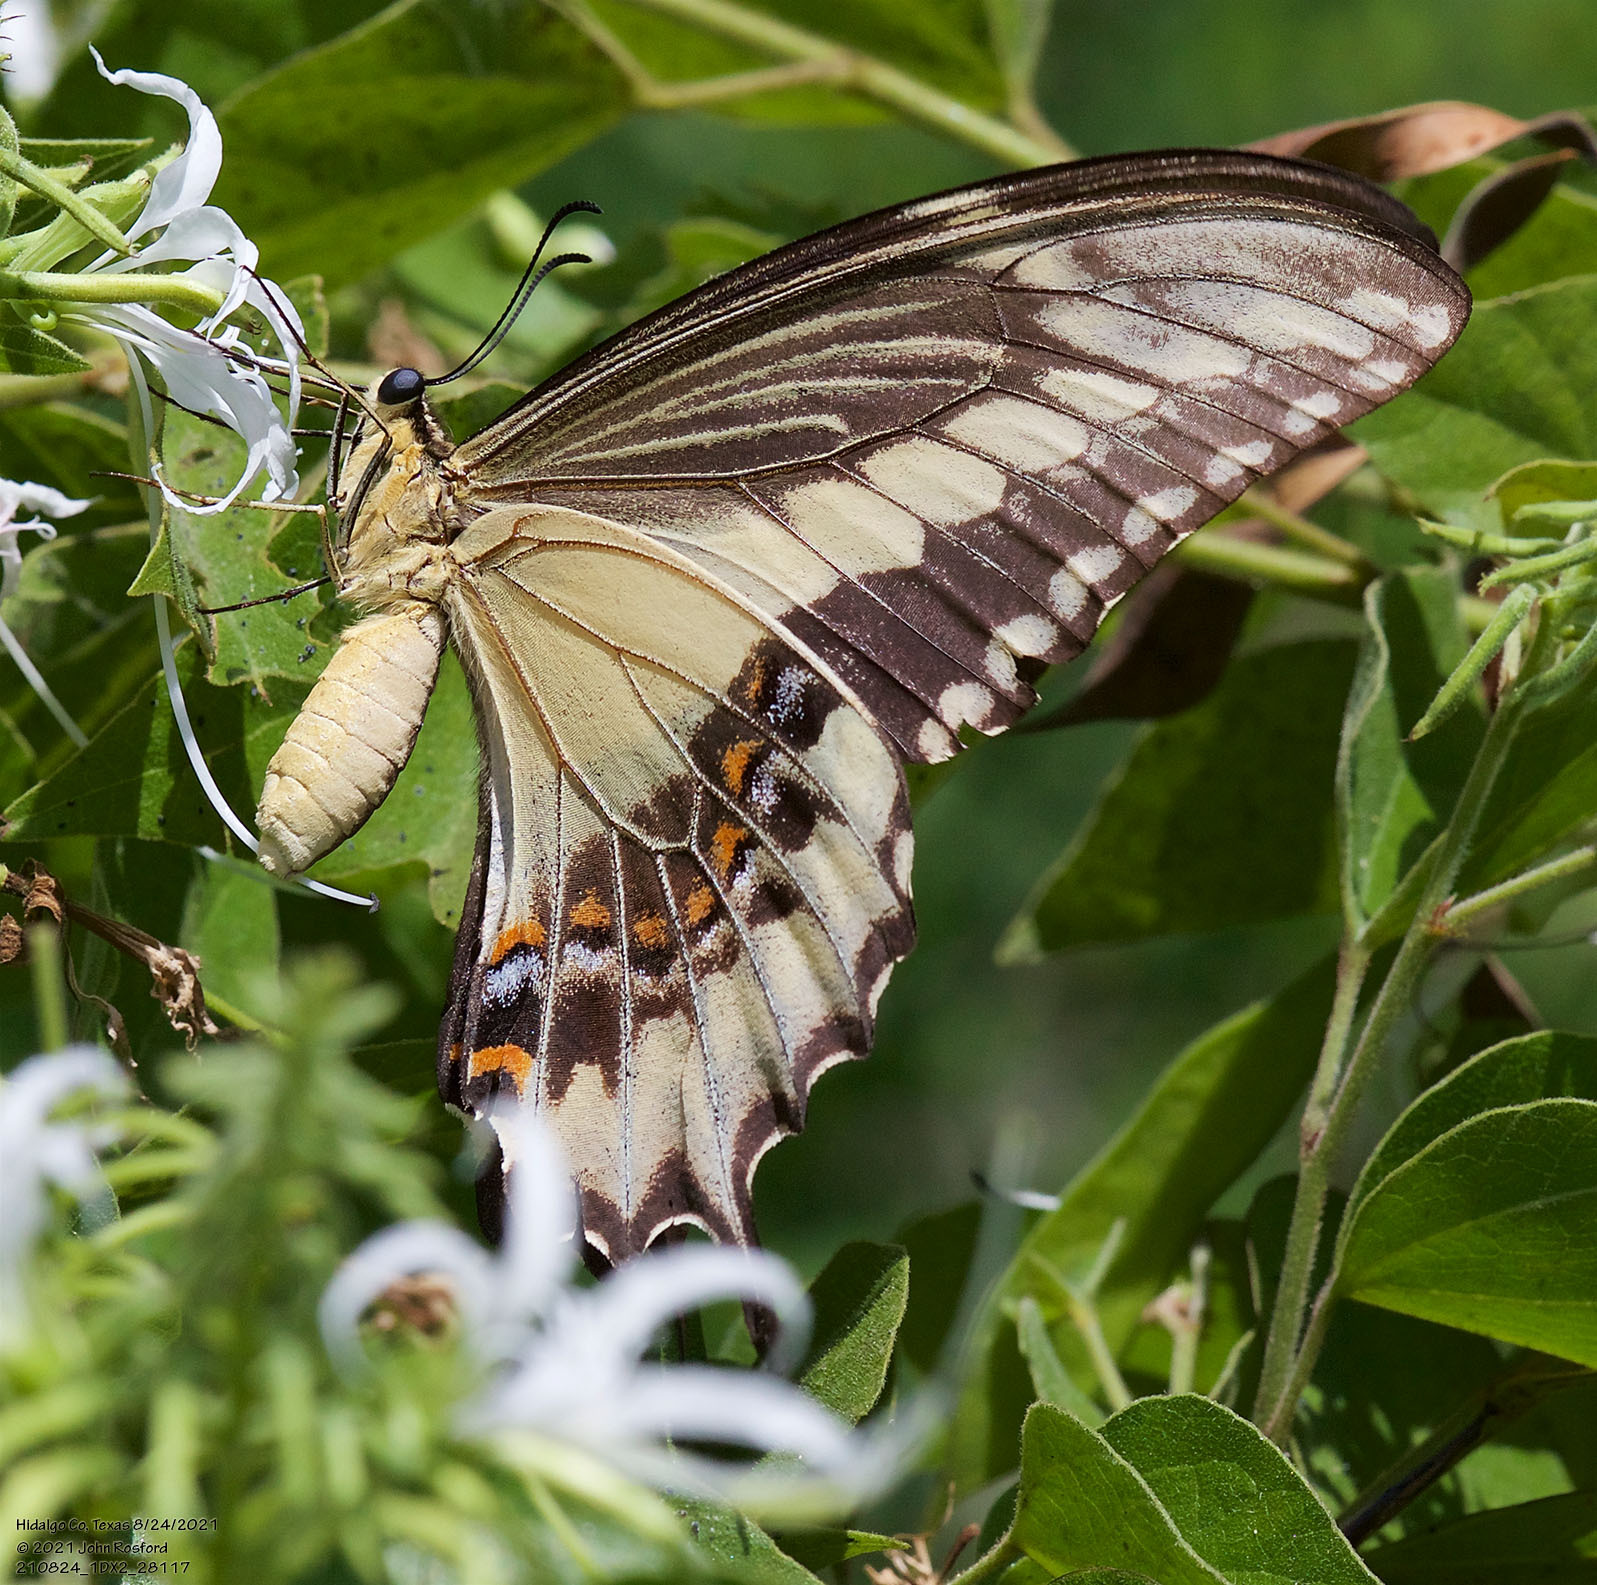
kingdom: Animalia
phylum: Arthropoda
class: Insecta
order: Lepidoptera
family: Papilionidae
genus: Papilio
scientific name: Papilio ornythion
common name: Ornythion swallowtail
